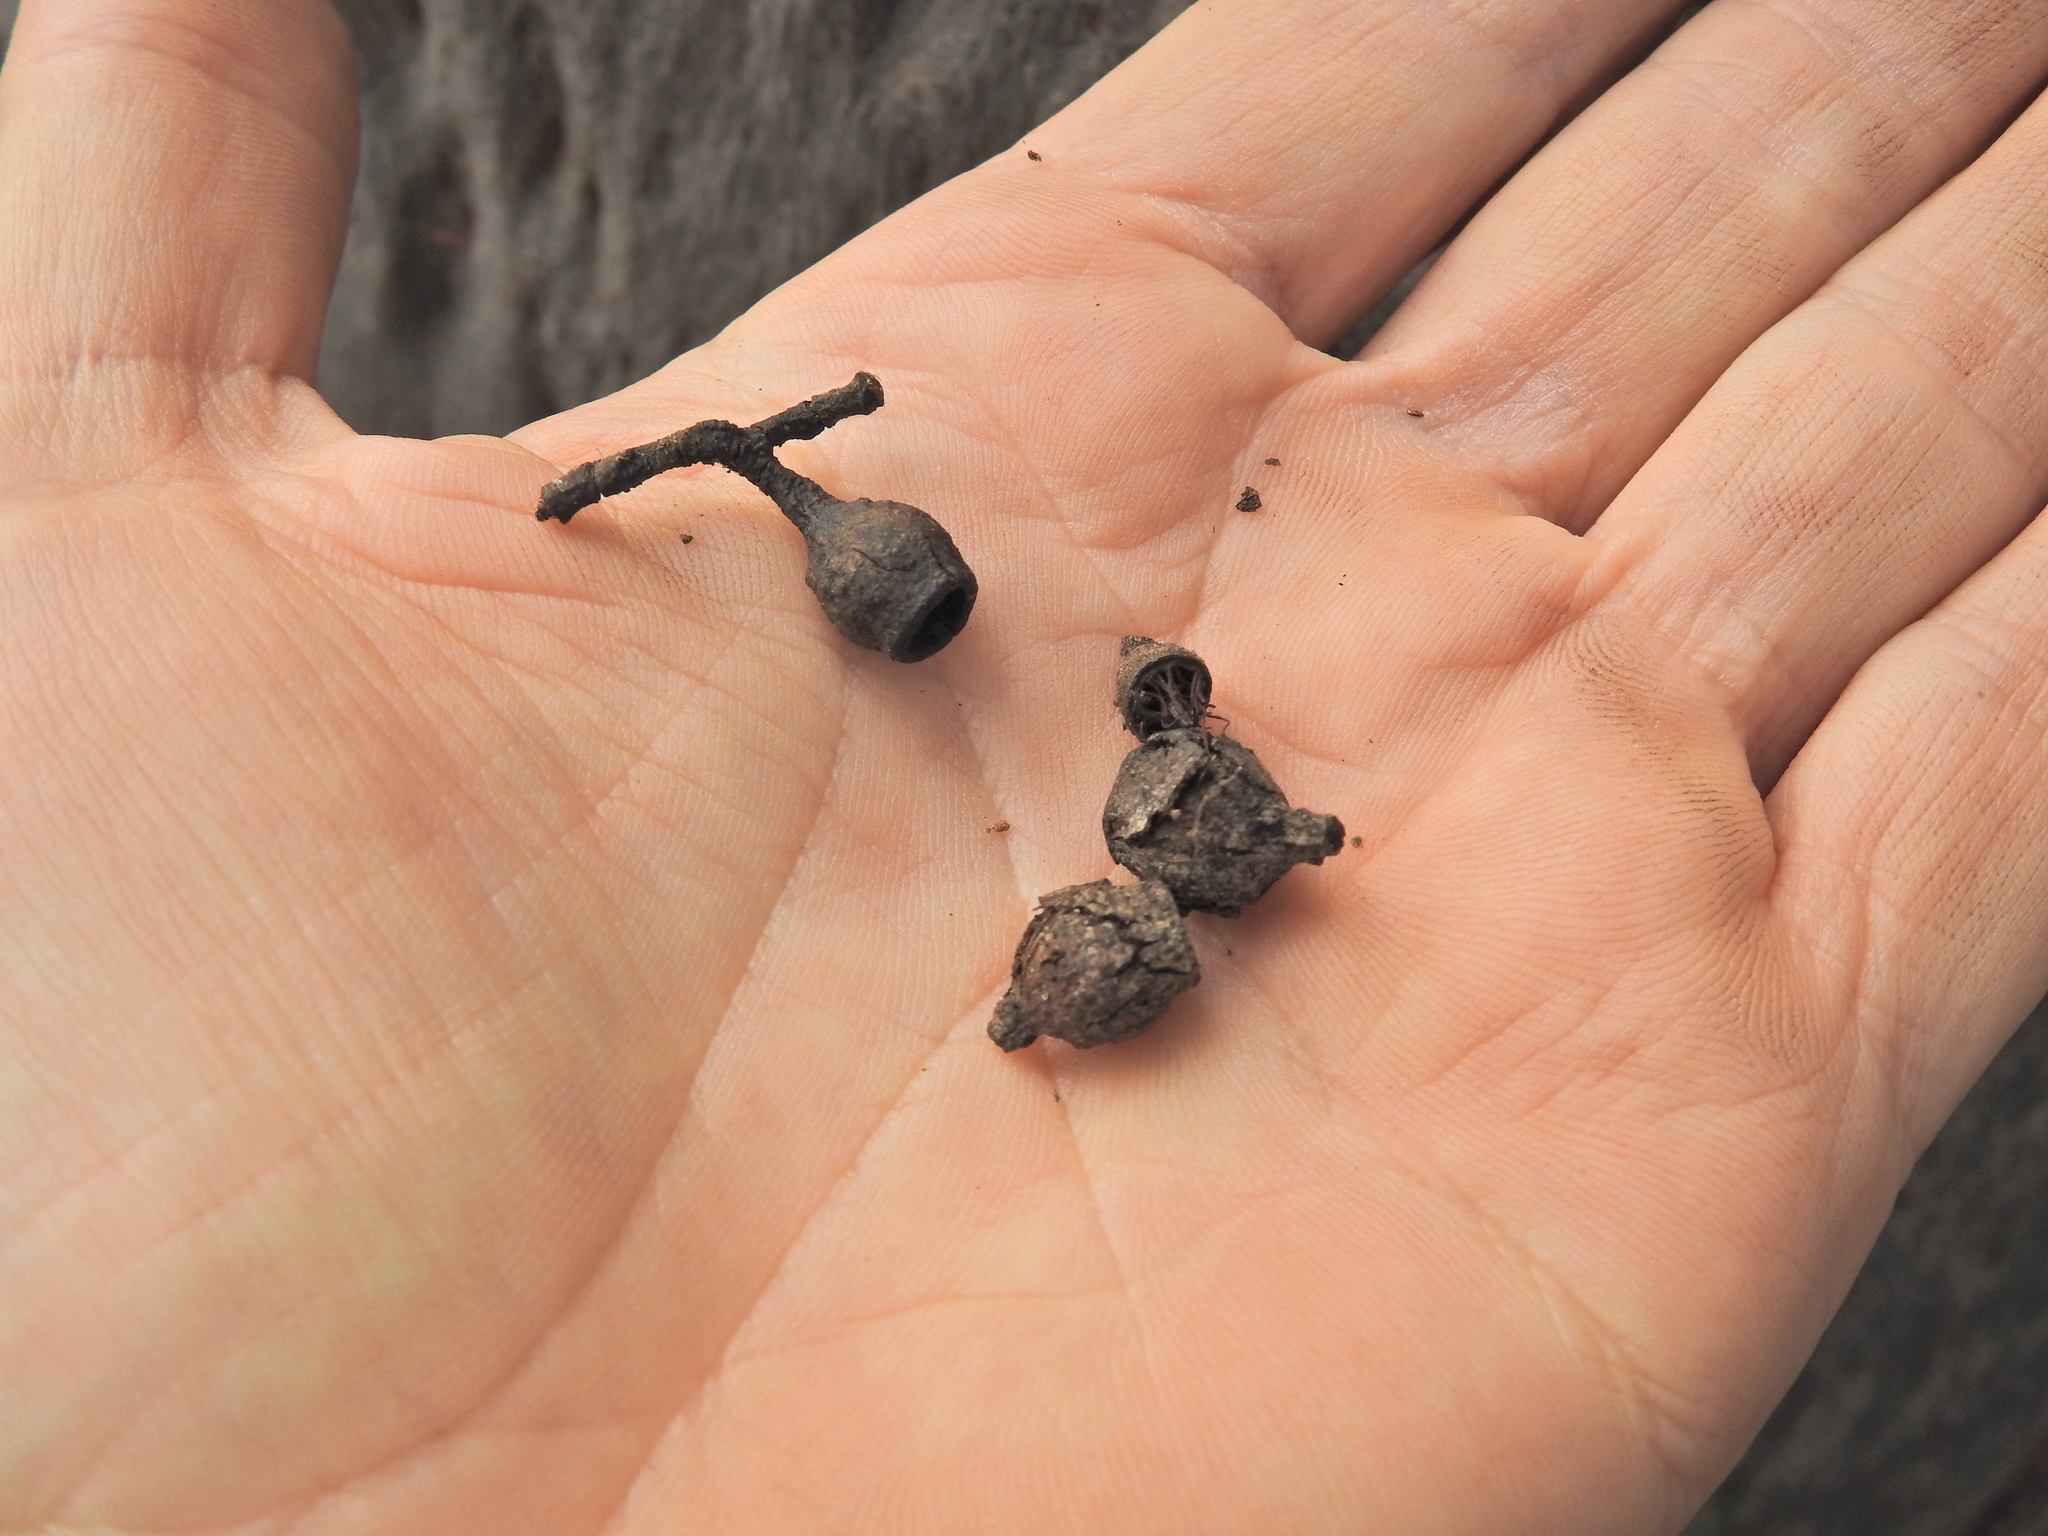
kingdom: Plantae
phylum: Tracheophyta
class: Magnoliopsida
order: Myrtales
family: Myrtaceae
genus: Corymbia
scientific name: Corymbia citriodora
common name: Lemonscented gum
